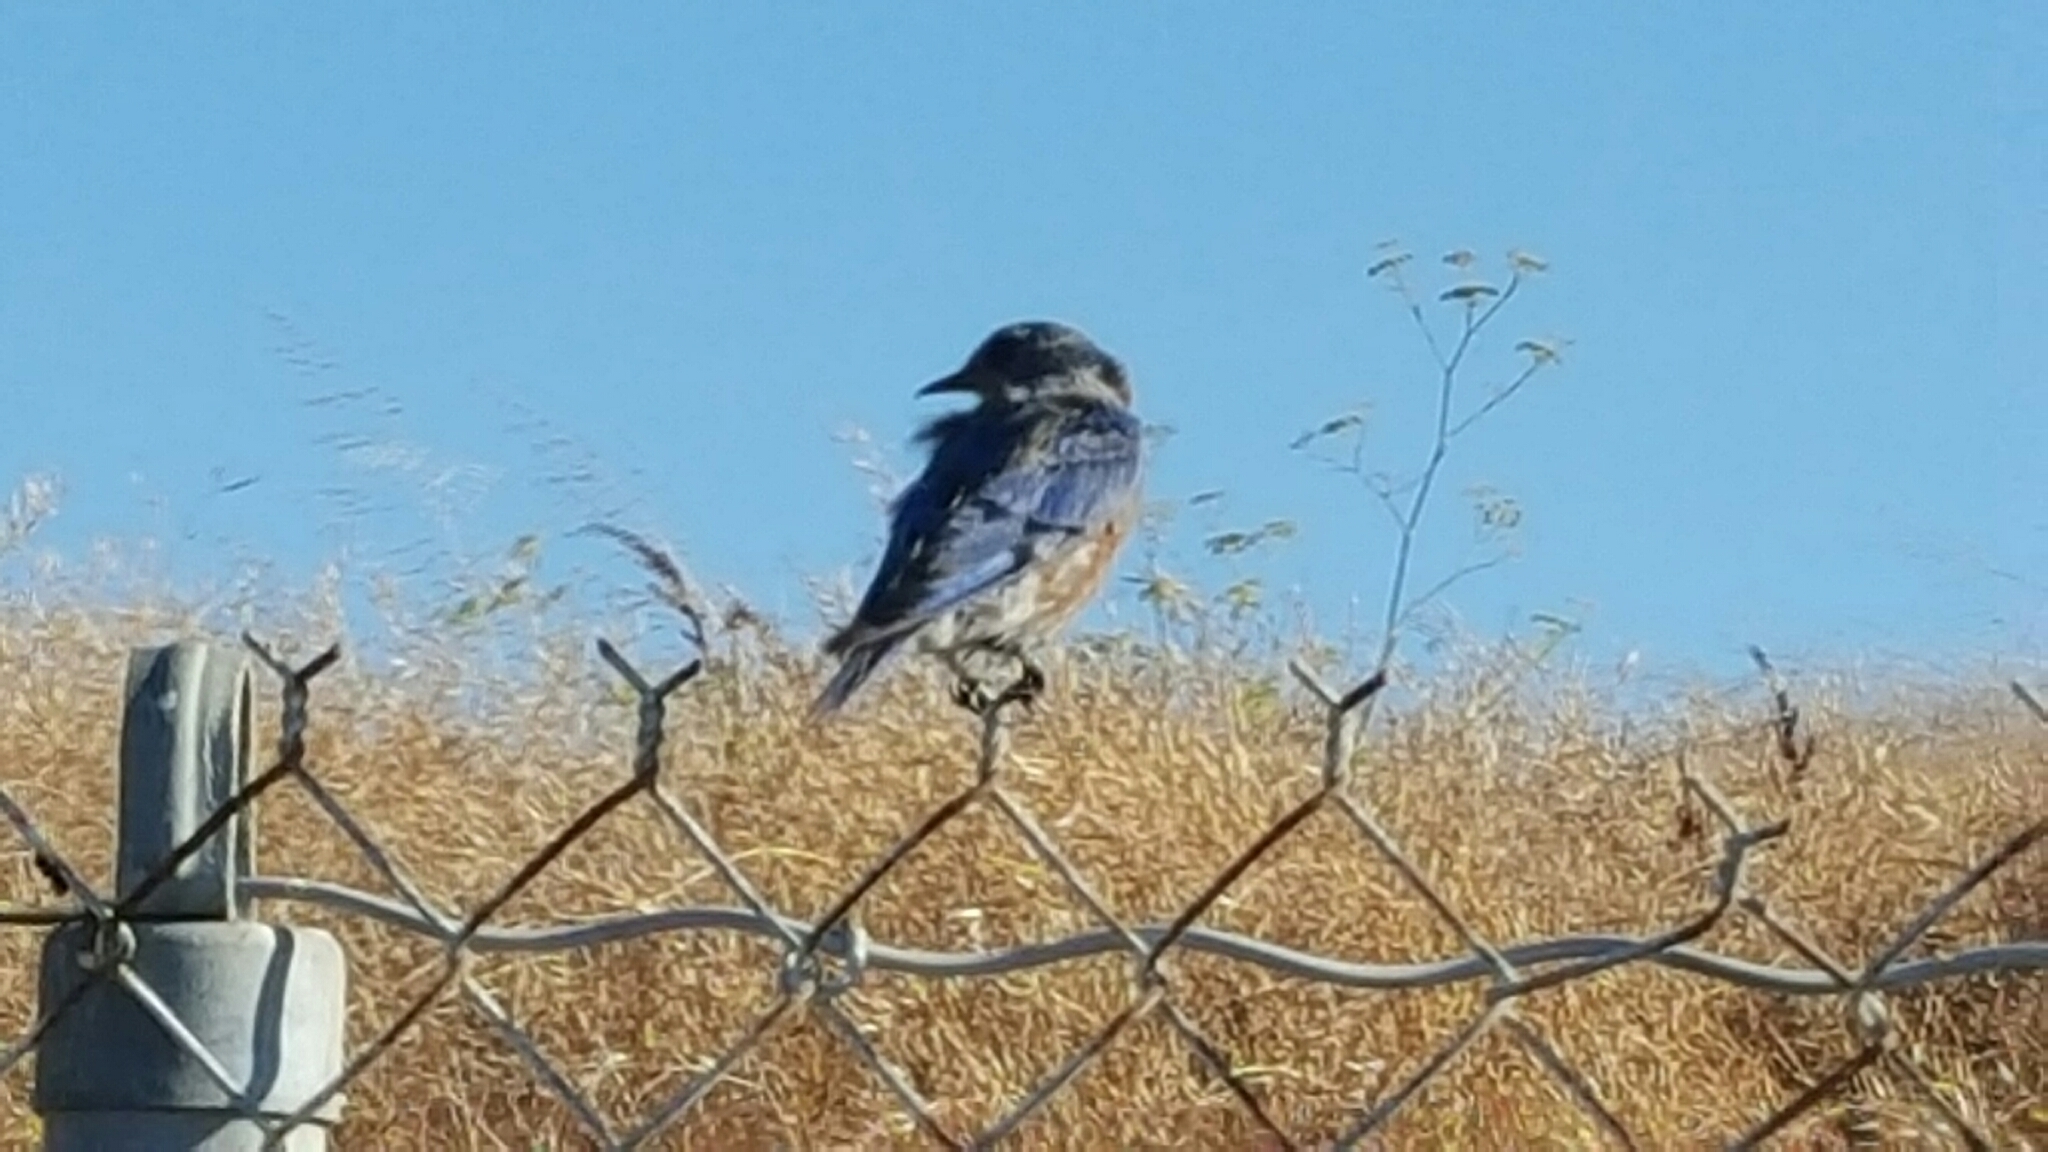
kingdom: Animalia
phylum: Chordata
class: Aves
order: Passeriformes
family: Turdidae
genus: Sialia
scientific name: Sialia mexicana
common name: Western bluebird
